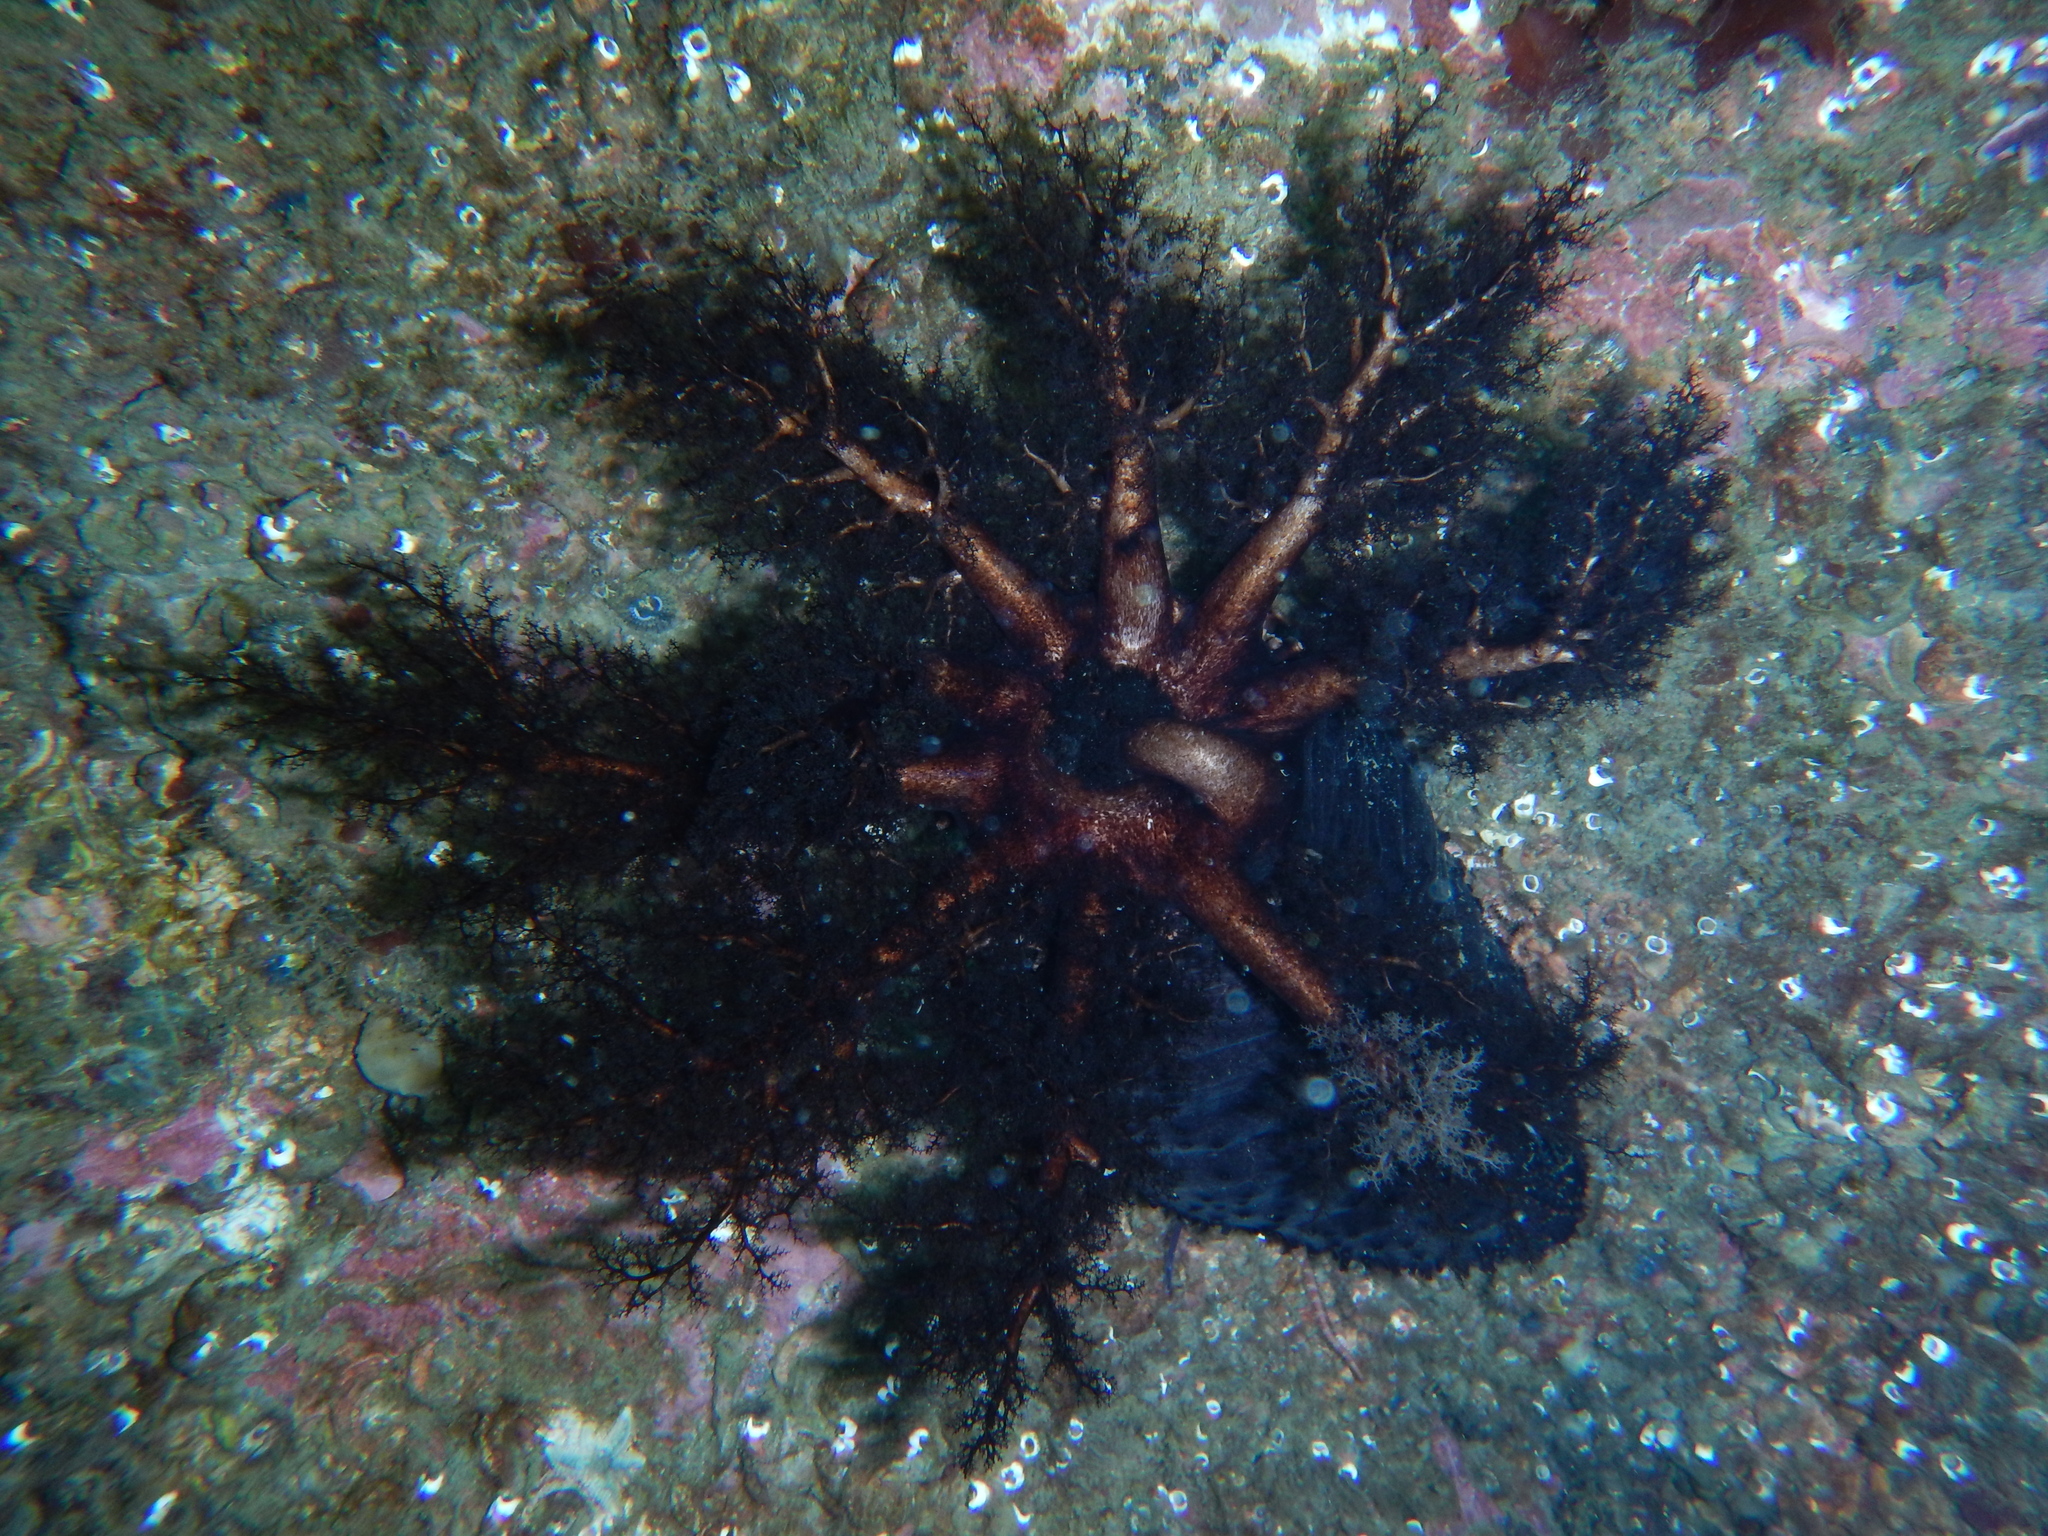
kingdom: Animalia
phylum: Echinodermata
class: Holothuroidea
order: Dendrochirotida
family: Cucumariidae
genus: Cucumaria
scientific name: Cucumaria frondosa
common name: Orange-footed sea cucumber
